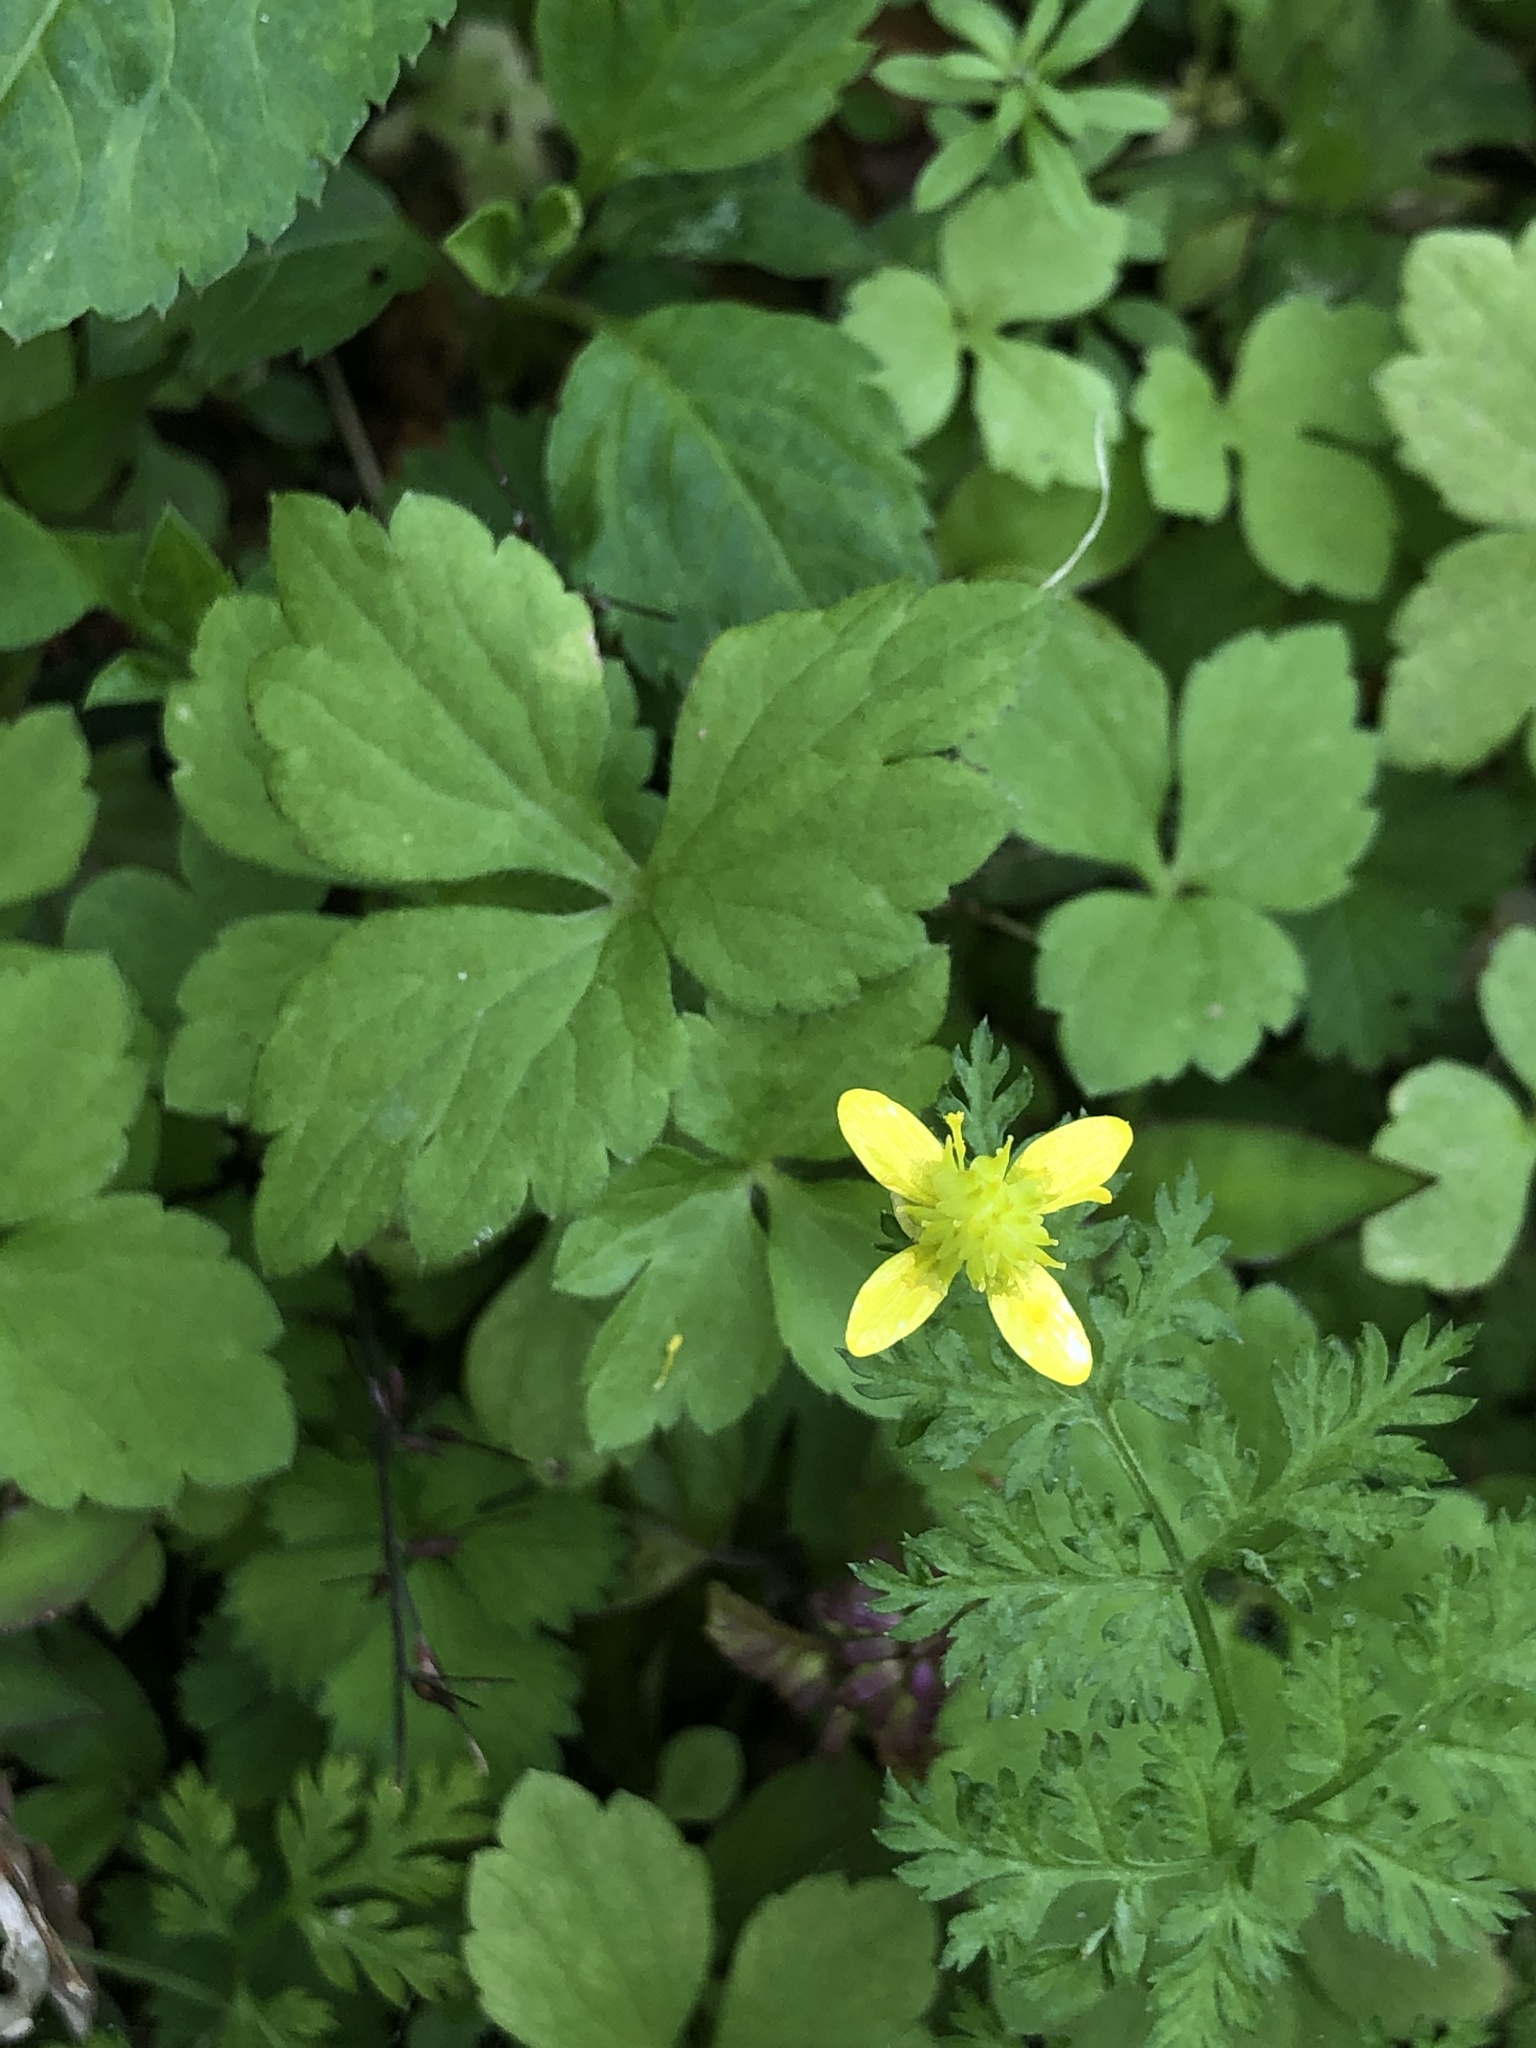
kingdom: Plantae
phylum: Tracheophyta
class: Magnoliopsida
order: Ranunculales
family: Ranunculaceae
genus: Ranunculus
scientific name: Ranunculus sieboldii
